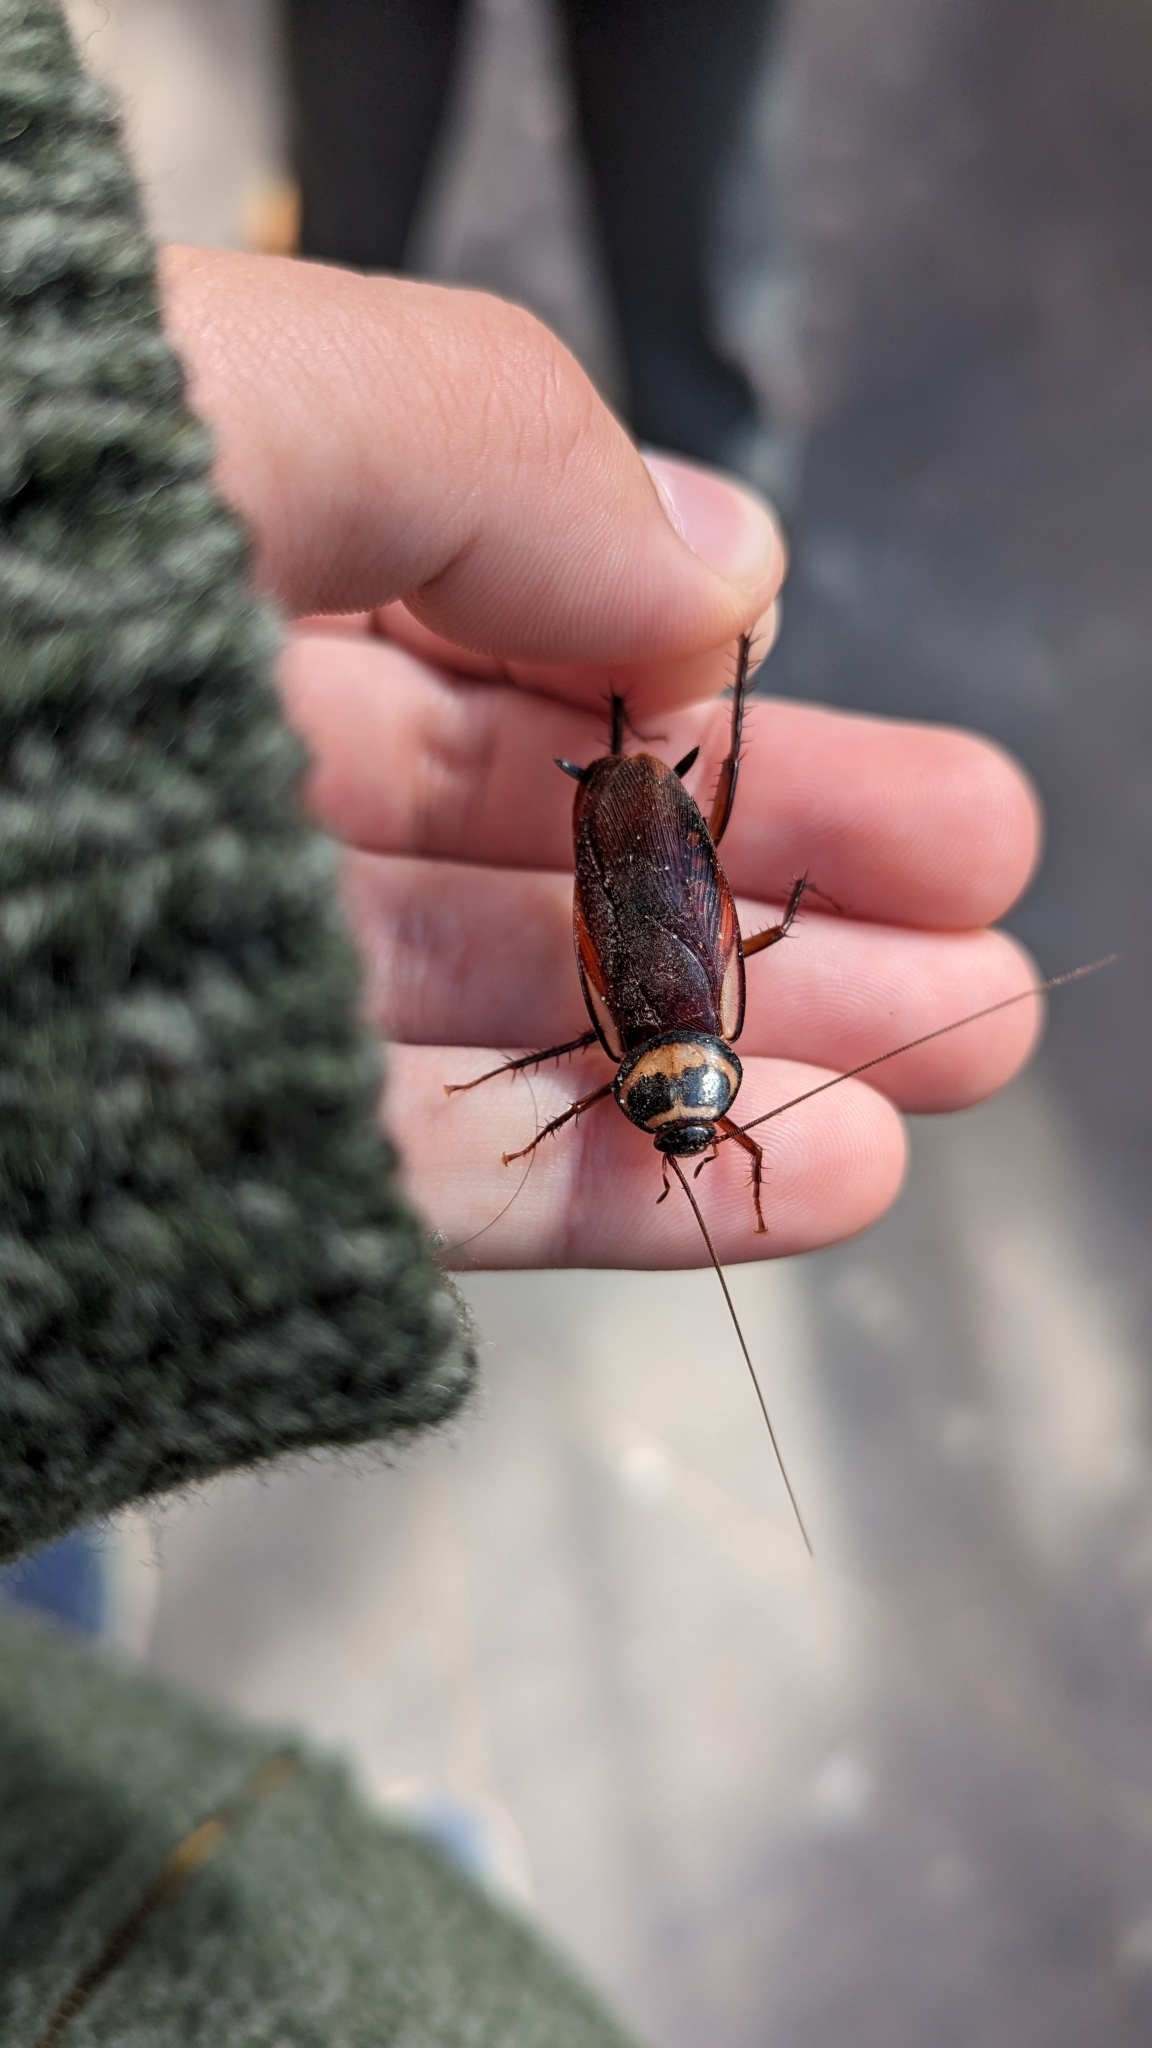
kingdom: Animalia
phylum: Arthropoda
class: Insecta
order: Blattodea
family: Blattidae
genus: Periplaneta
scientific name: Periplaneta australasiae
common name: Australian cockroach
